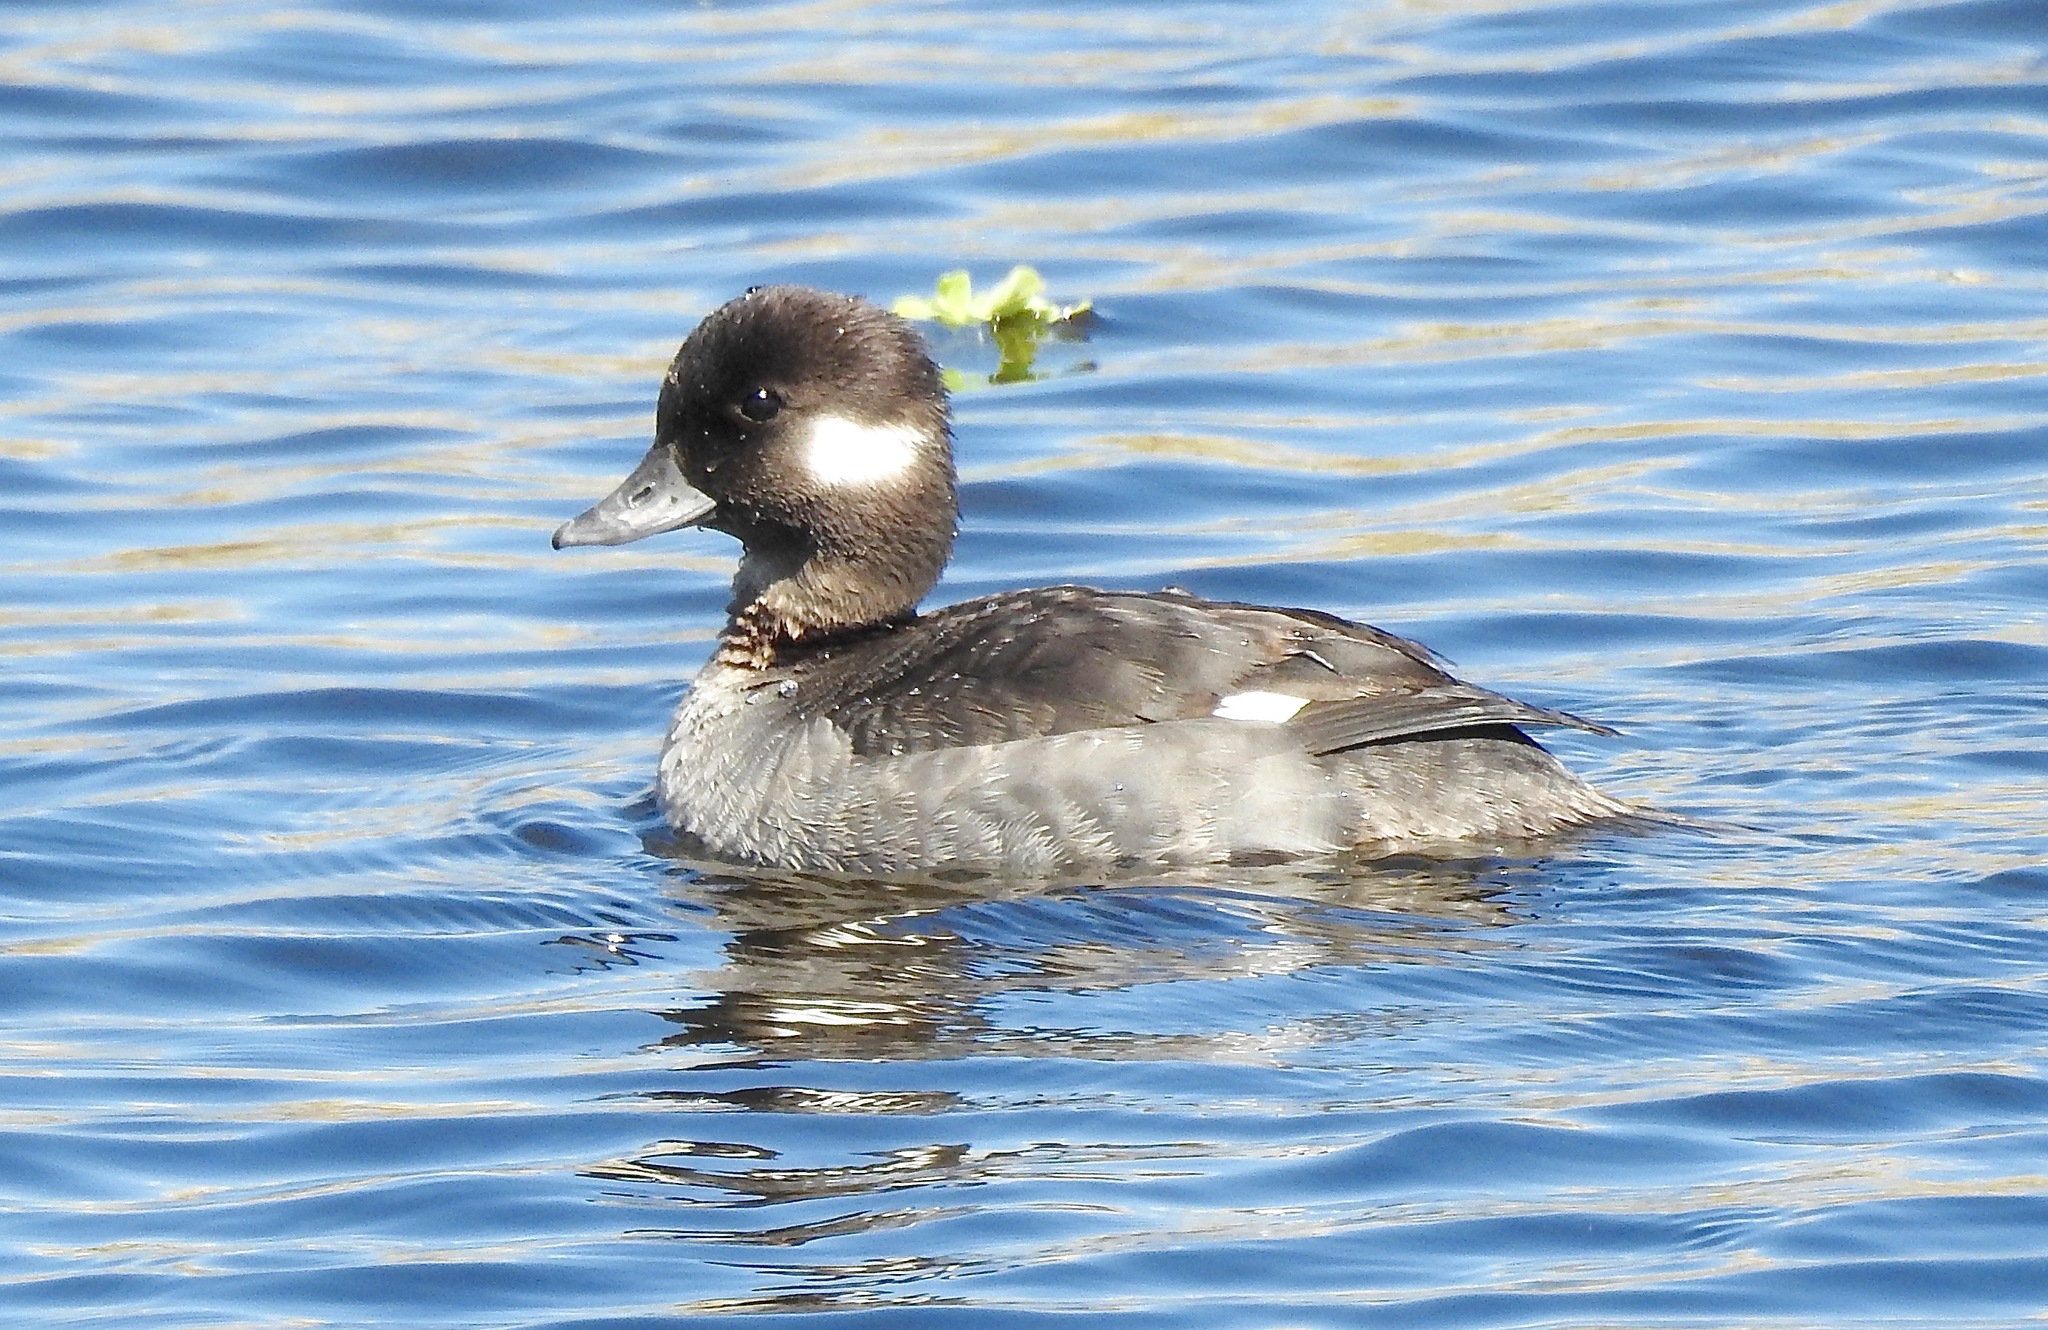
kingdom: Animalia
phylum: Chordata
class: Aves
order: Anseriformes
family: Anatidae
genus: Bucephala
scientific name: Bucephala albeola
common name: Bufflehead
